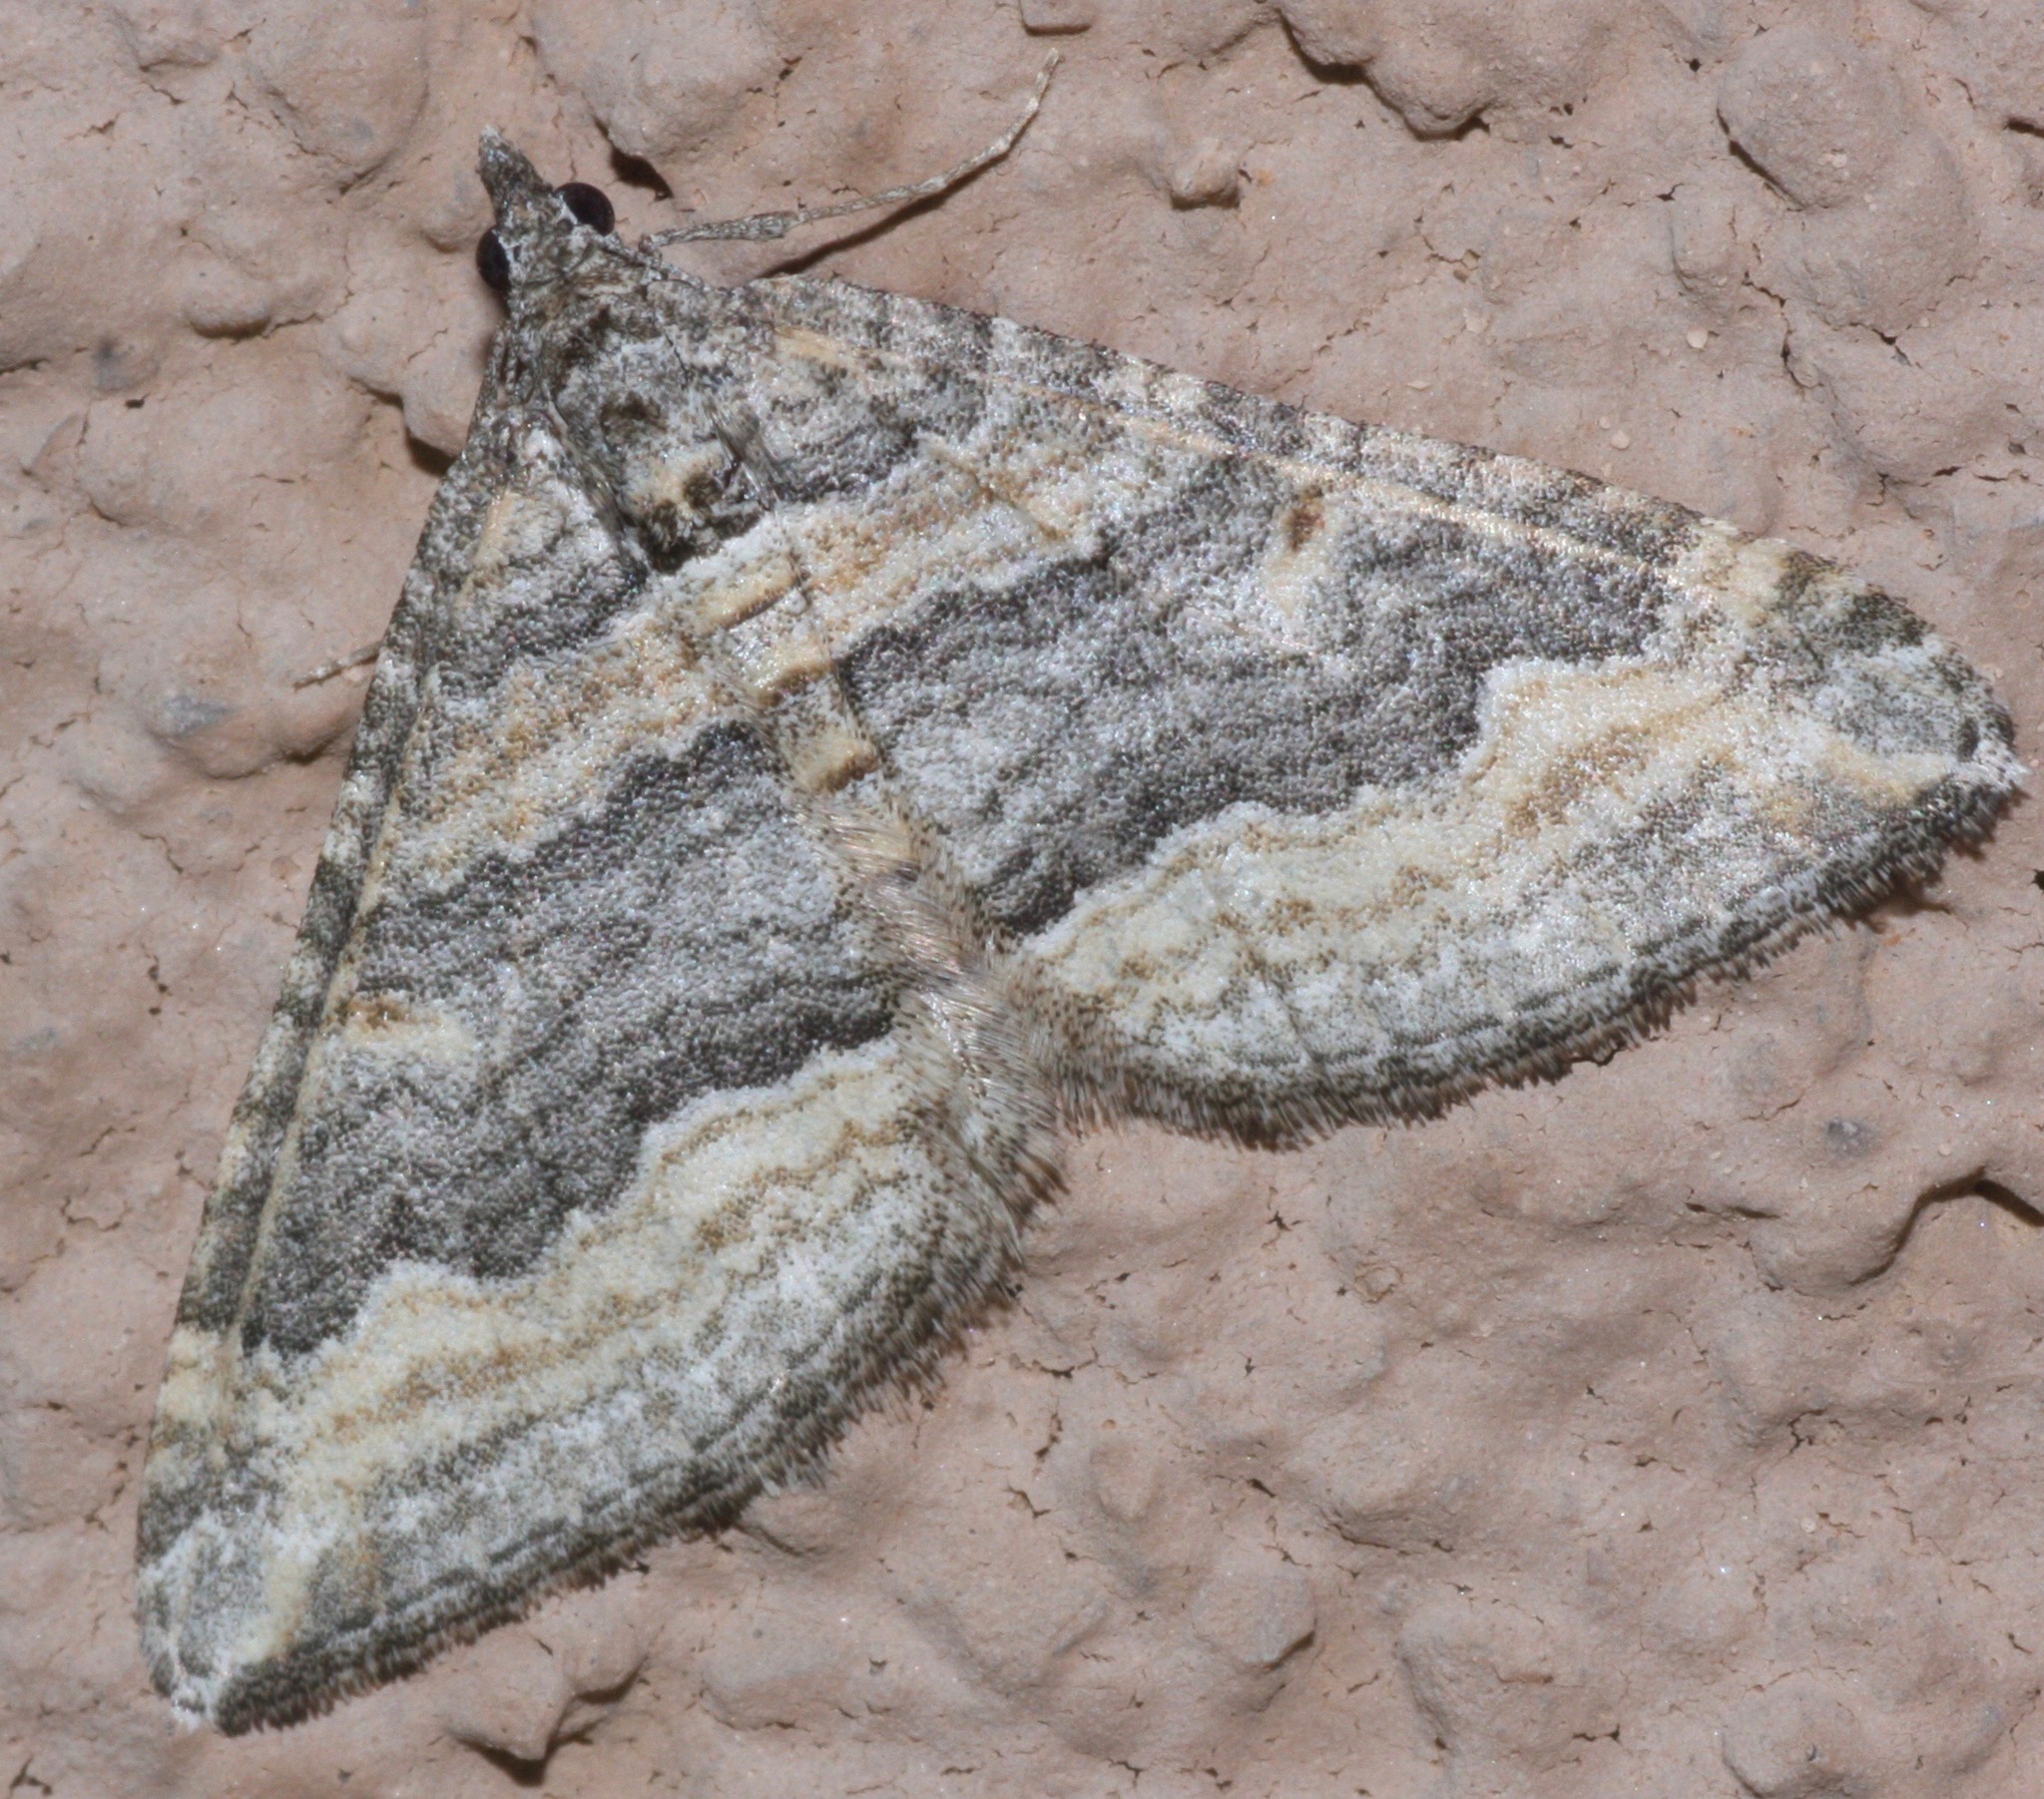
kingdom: Animalia
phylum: Arthropoda
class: Insecta
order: Lepidoptera
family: Geometridae
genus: Perizoma
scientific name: Perizoma custodiata
